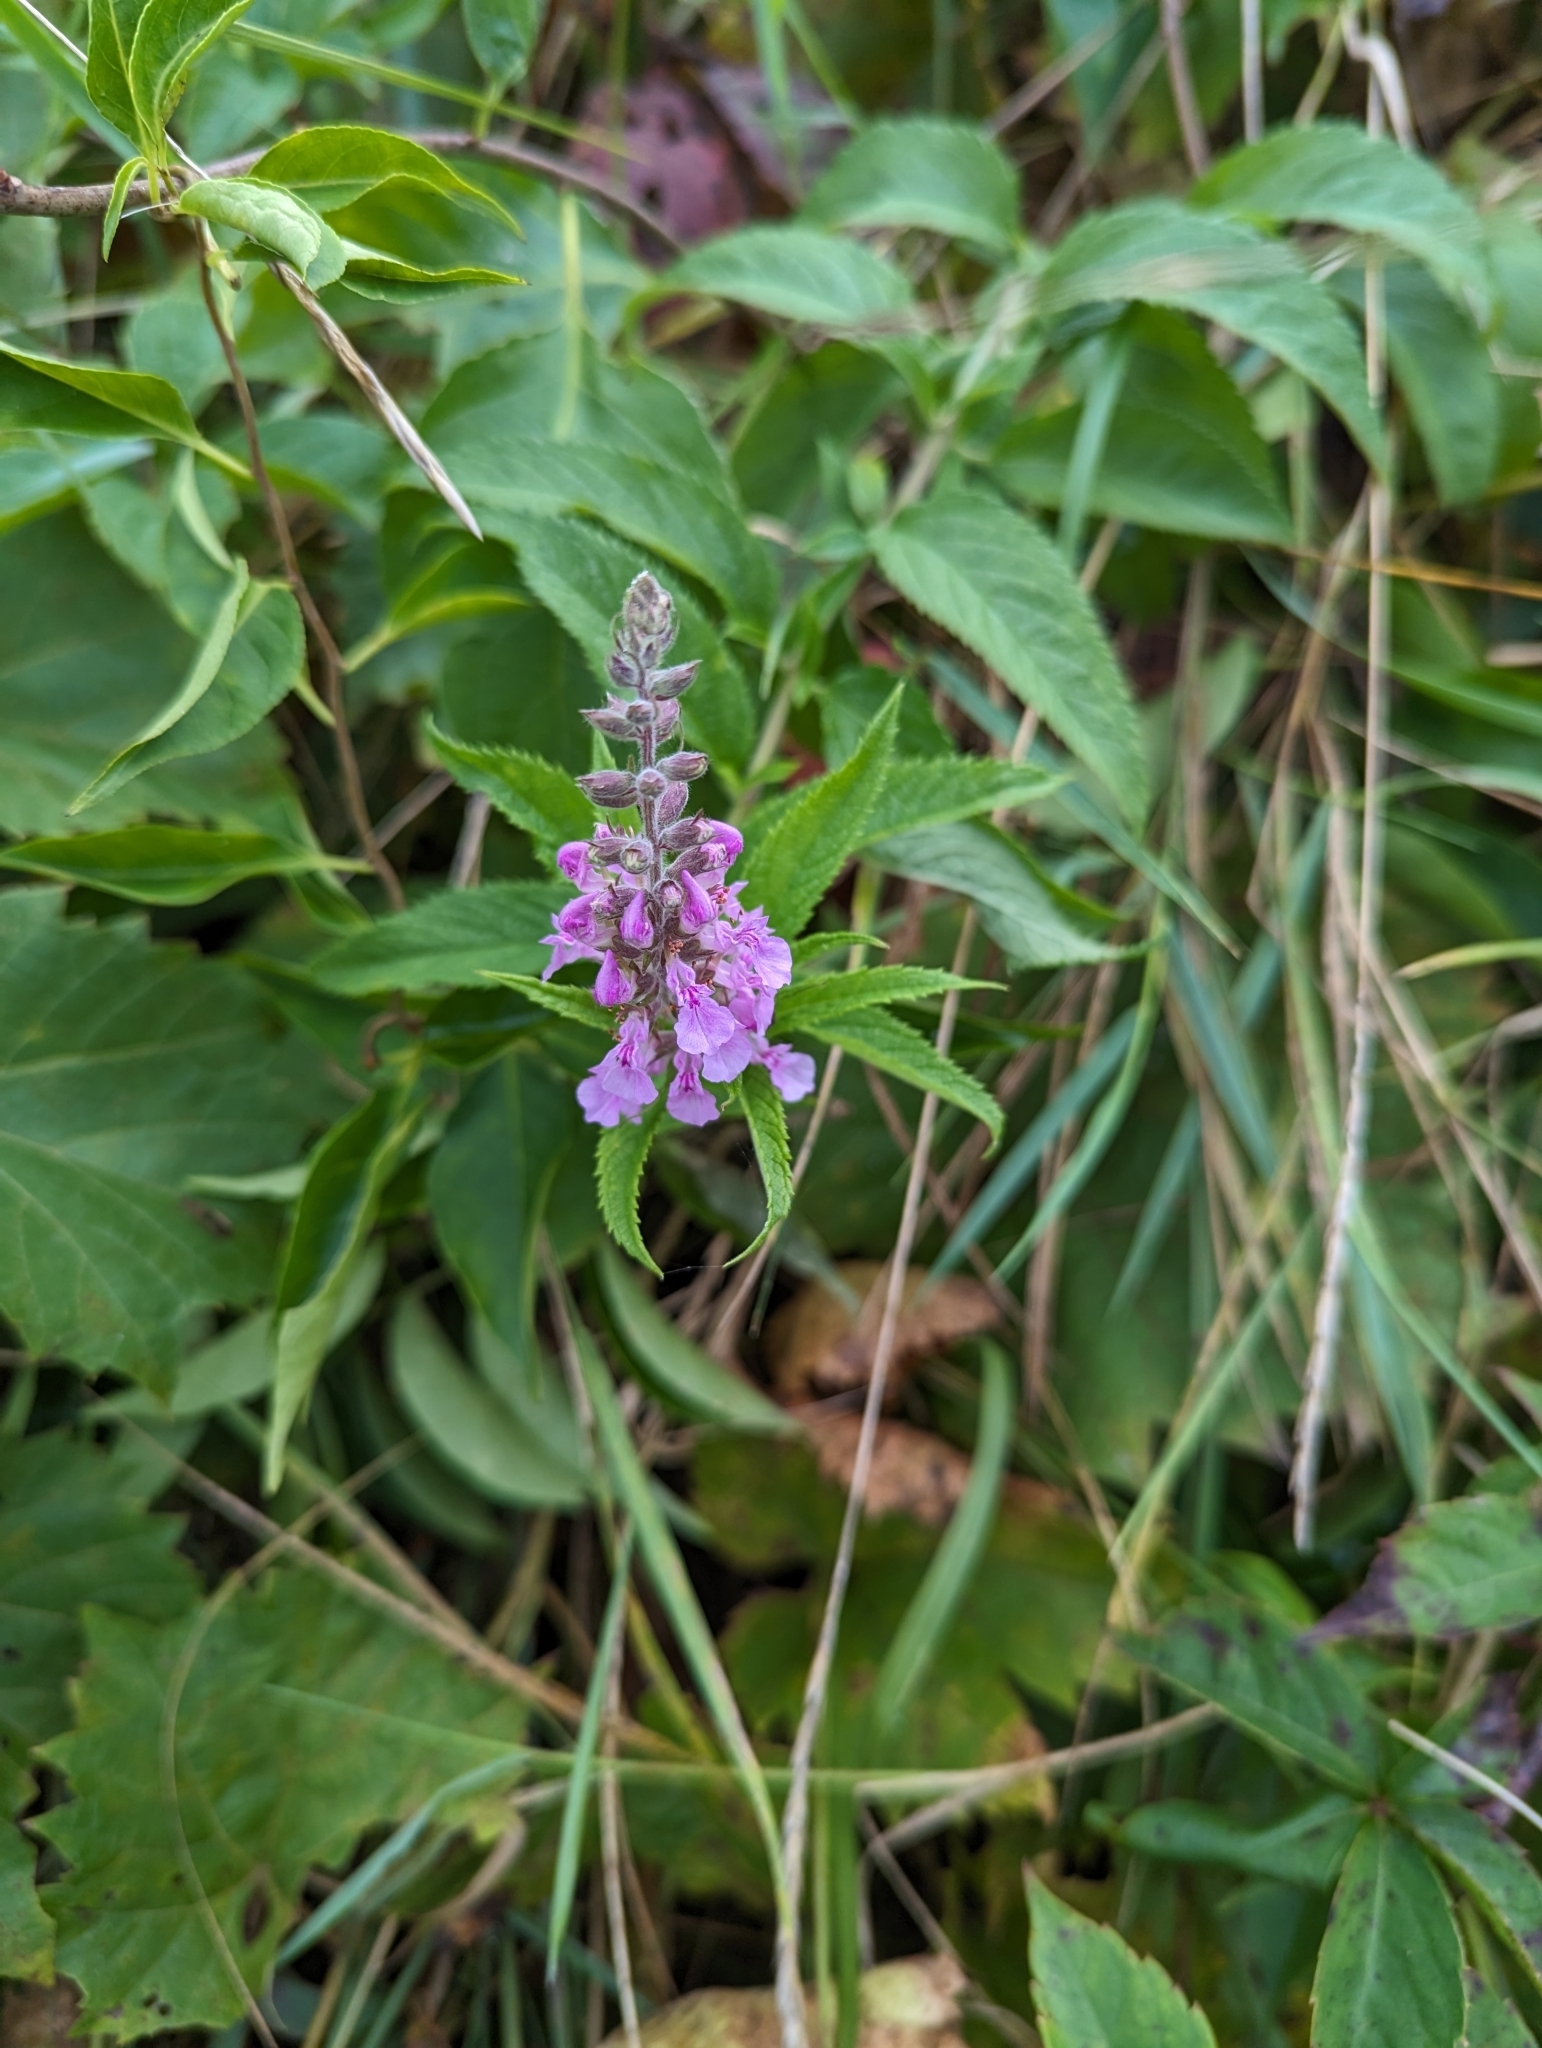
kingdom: Plantae
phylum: Tracheophyta
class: Magnoliopsida
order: Lamiales
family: Lamiaceae
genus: Teucrium
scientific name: Teucrium canadense
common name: American germander
